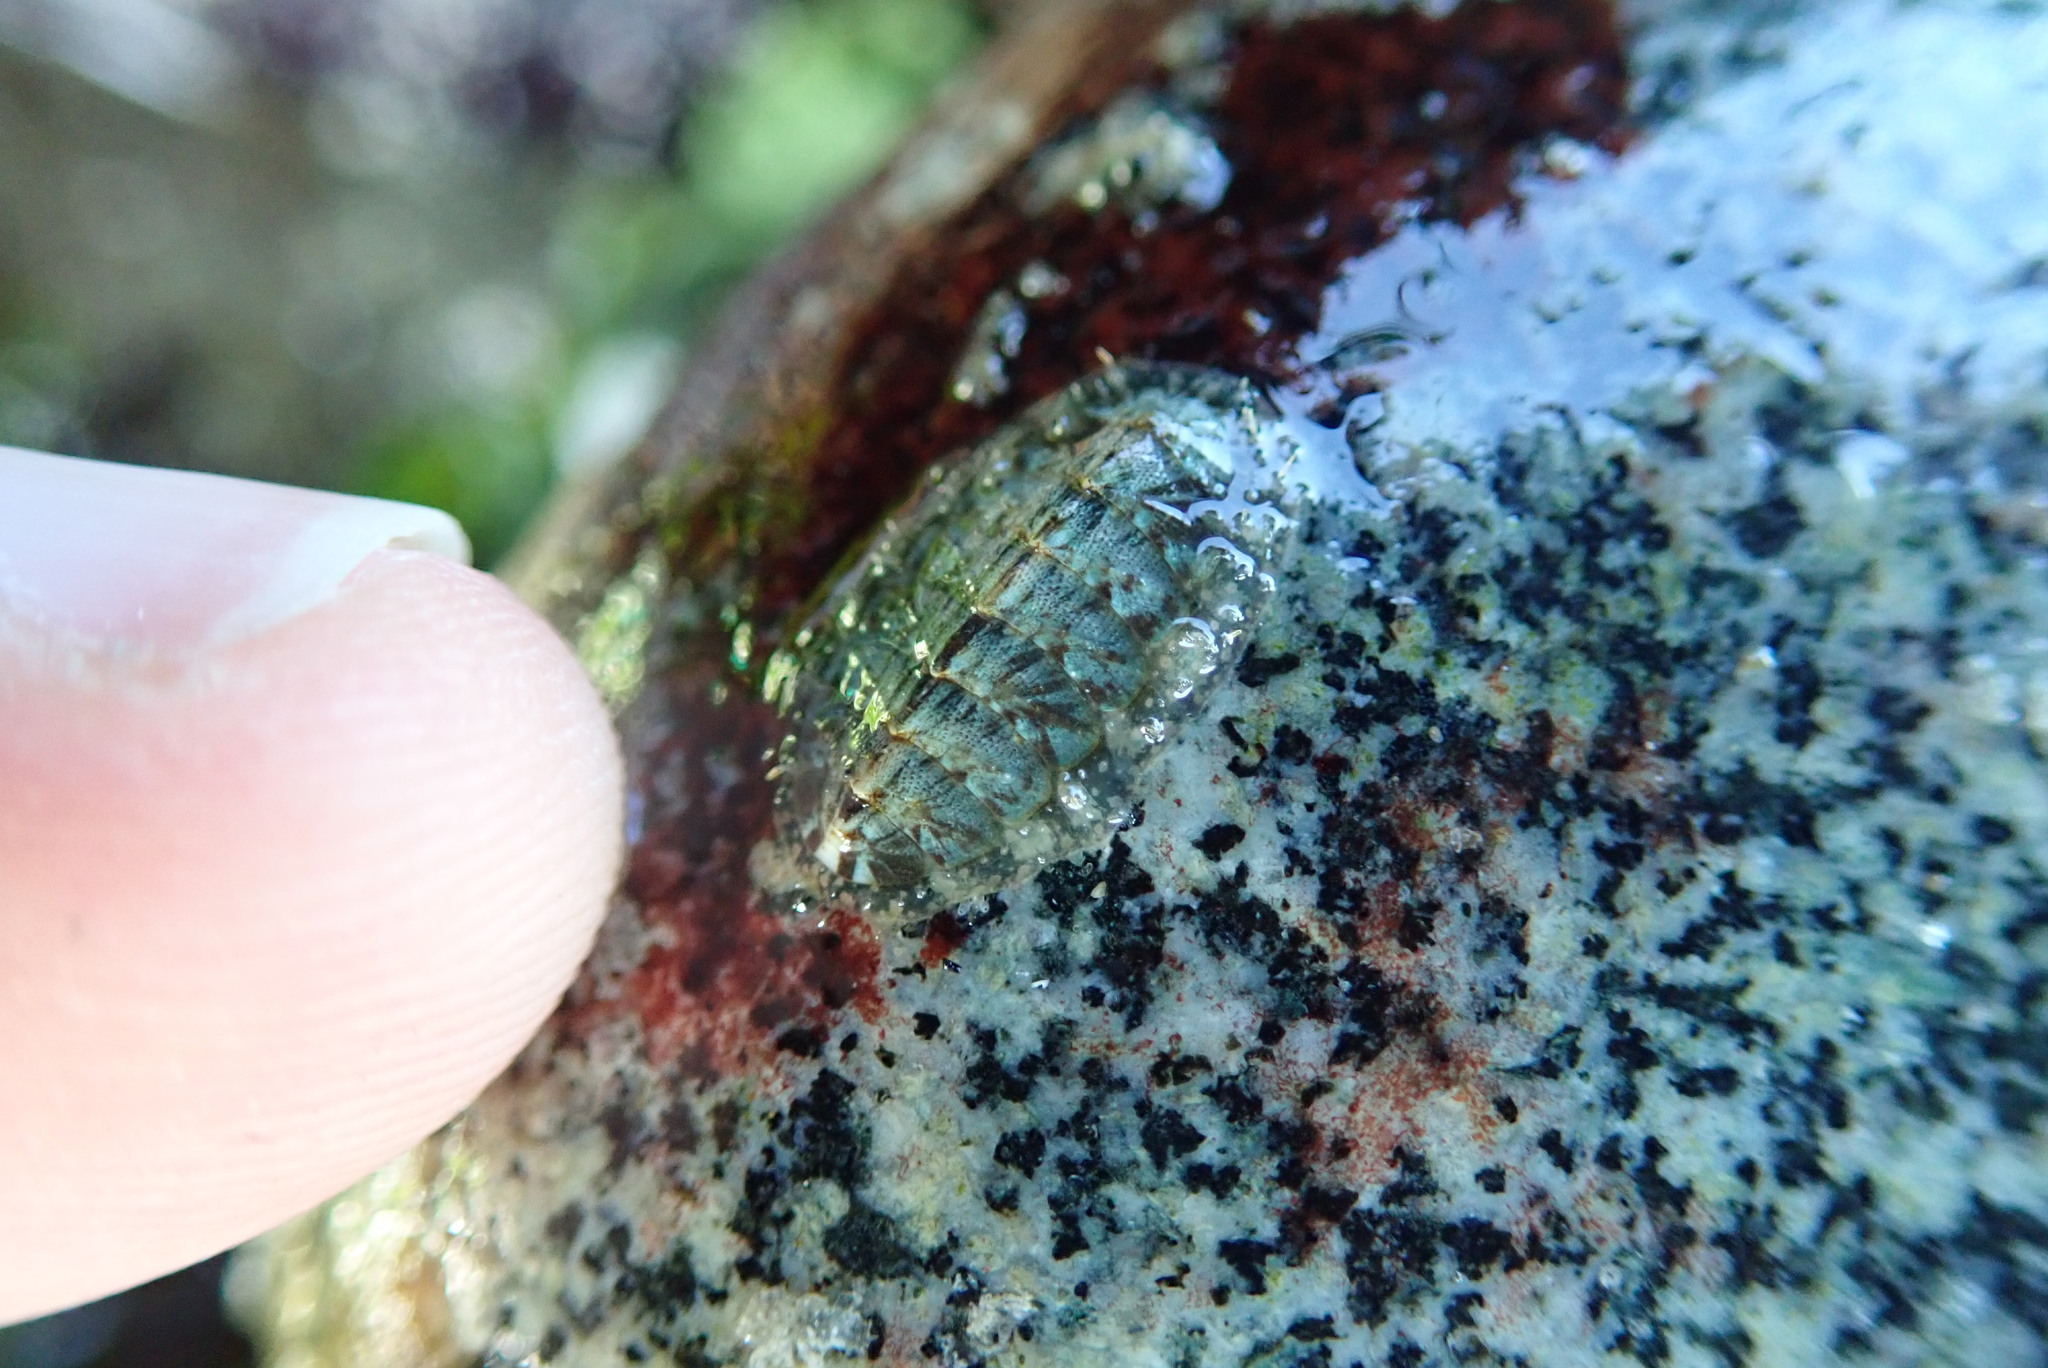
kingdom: Animalia
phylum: Mollusca
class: Polyplacophora
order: Chitonida
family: Mopaliidae
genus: Mopalia
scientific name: Mopalia lignosa
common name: Woody chiton
